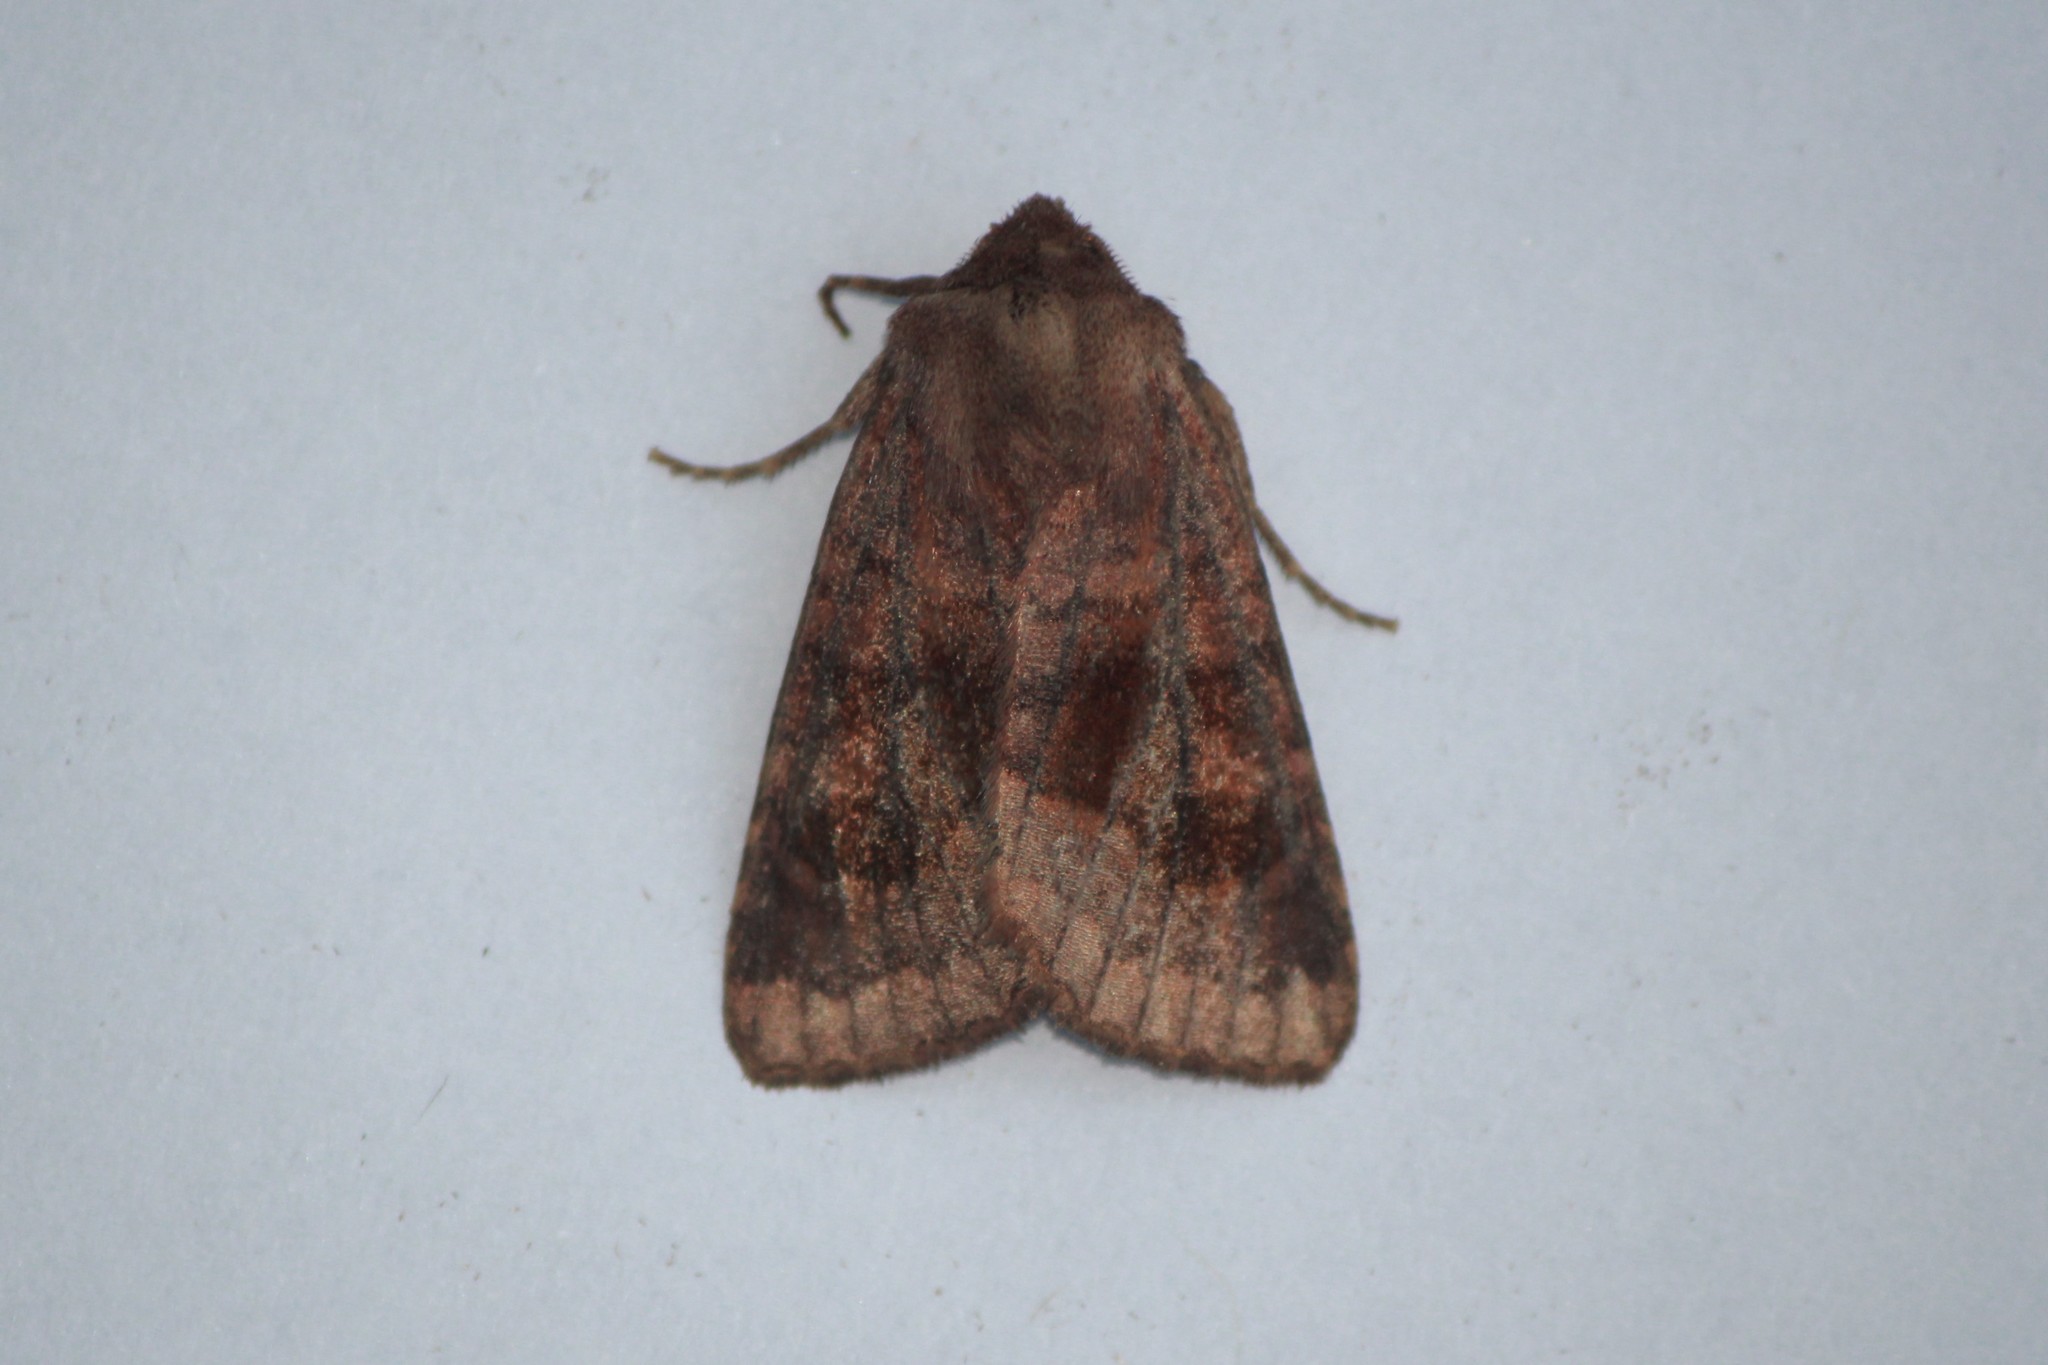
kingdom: Animalia
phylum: Arthropoda
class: Insecta
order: Lepidoptera
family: Noctuidae
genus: Nephelodes
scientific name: Nephelodes minians
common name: Bronzed cutworm
